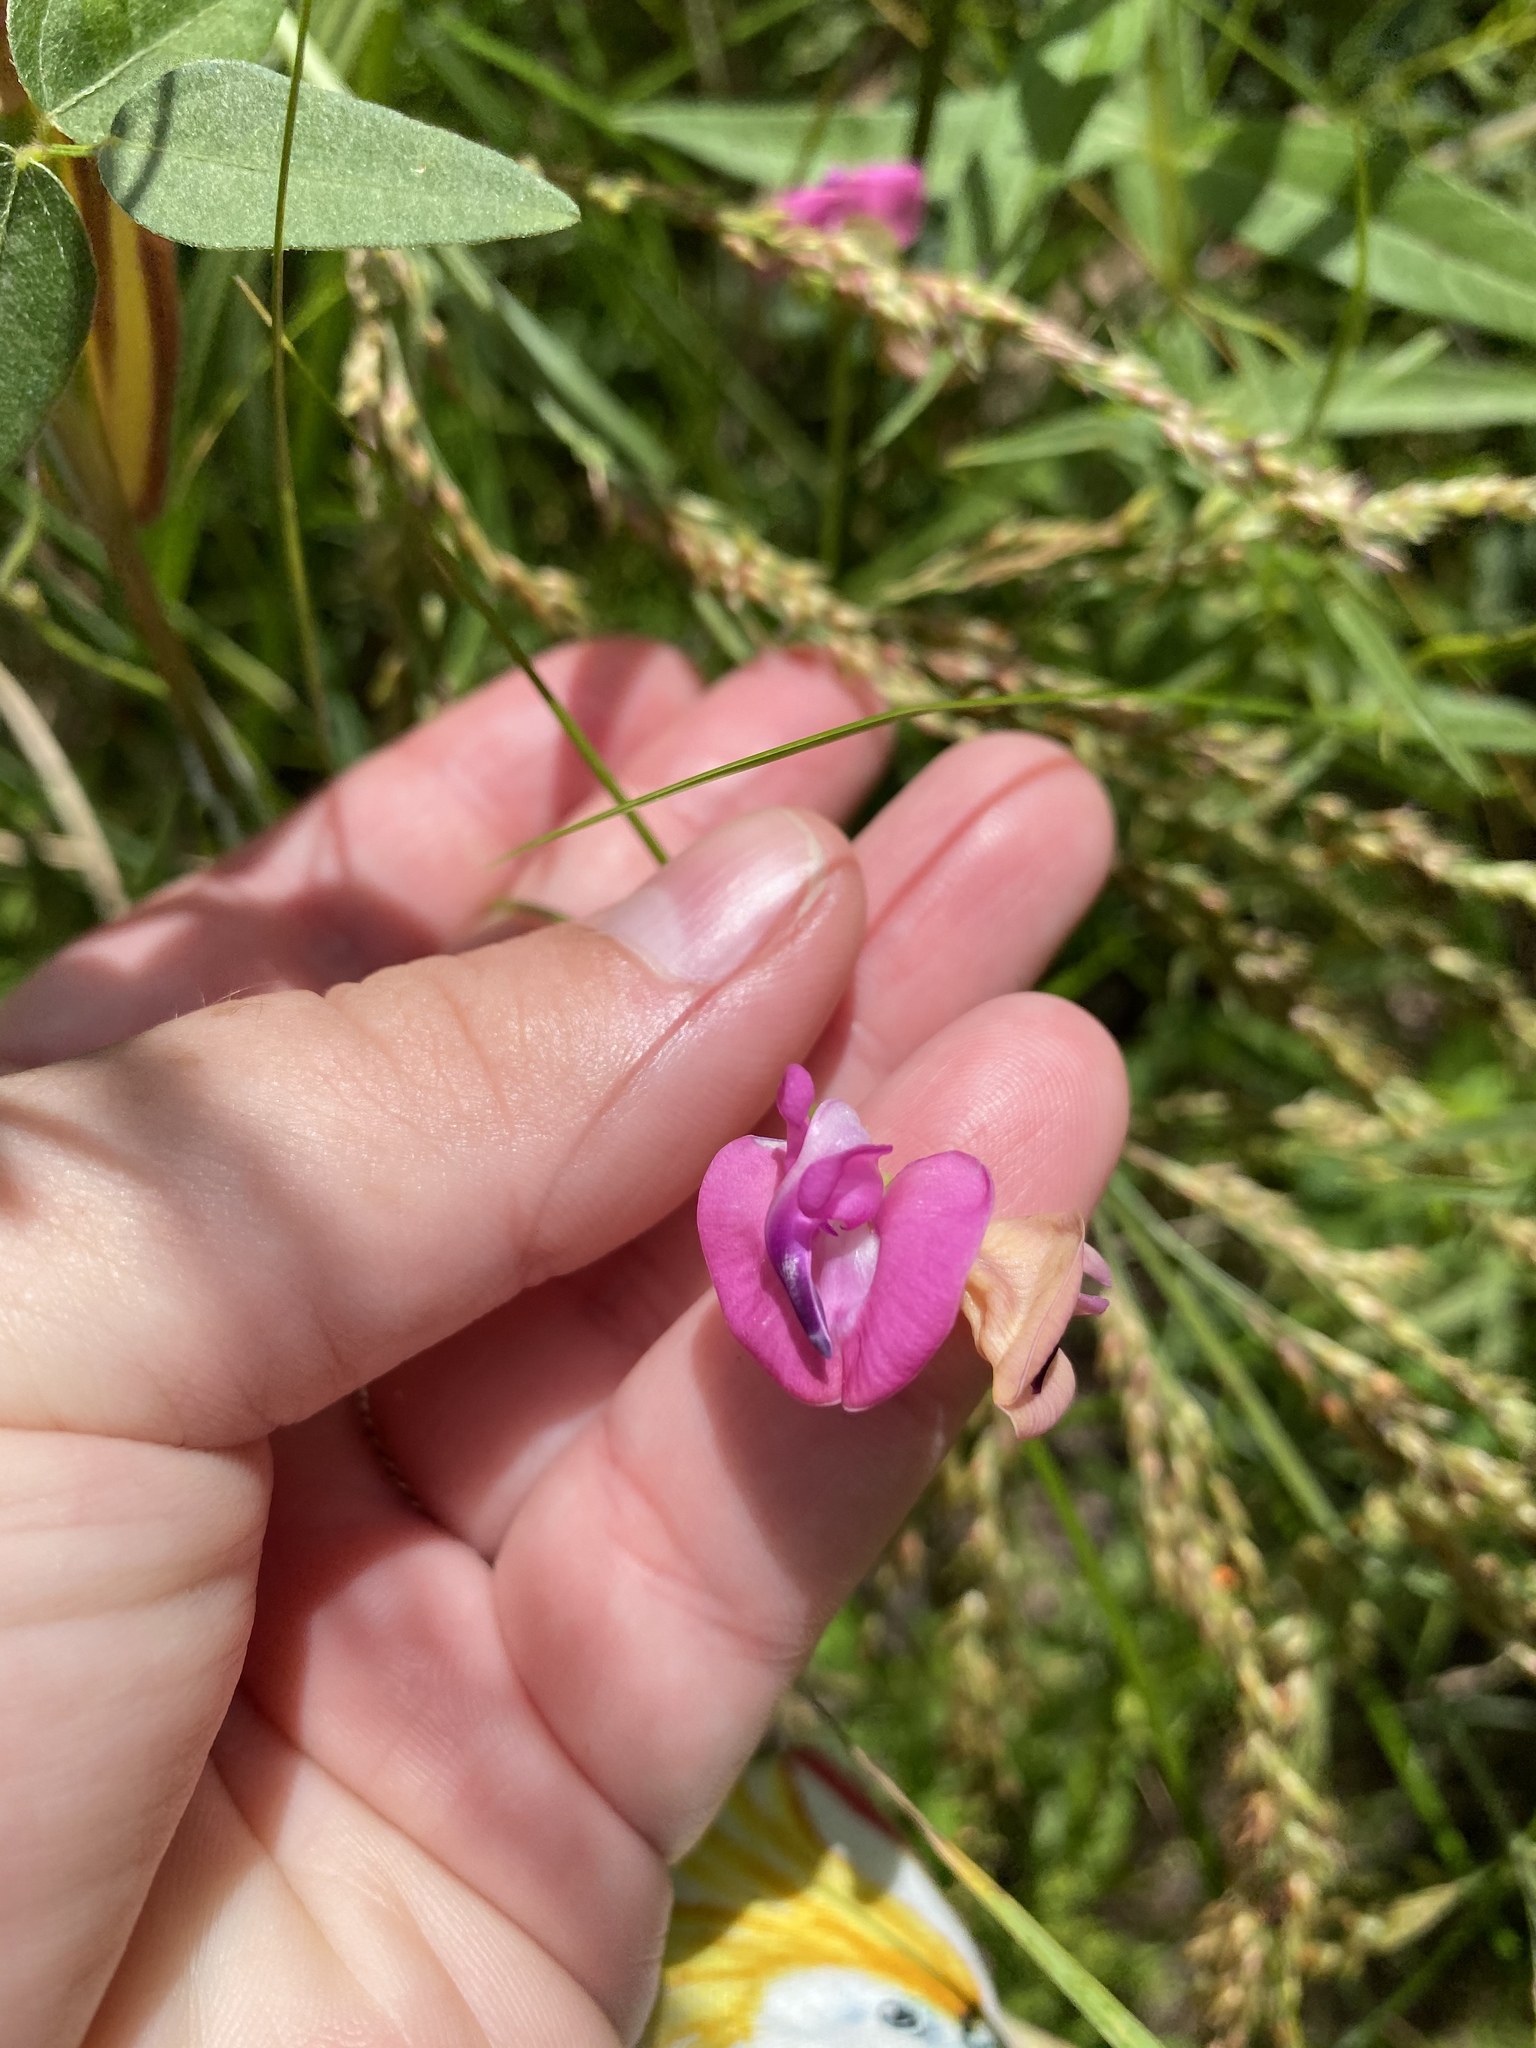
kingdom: Plantae
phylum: Tracheophyta
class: Magnoliopsida
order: Fabales
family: Fabaceae
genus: Strophostyles
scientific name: Strophostyles umbellata
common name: Perennial wild bean
